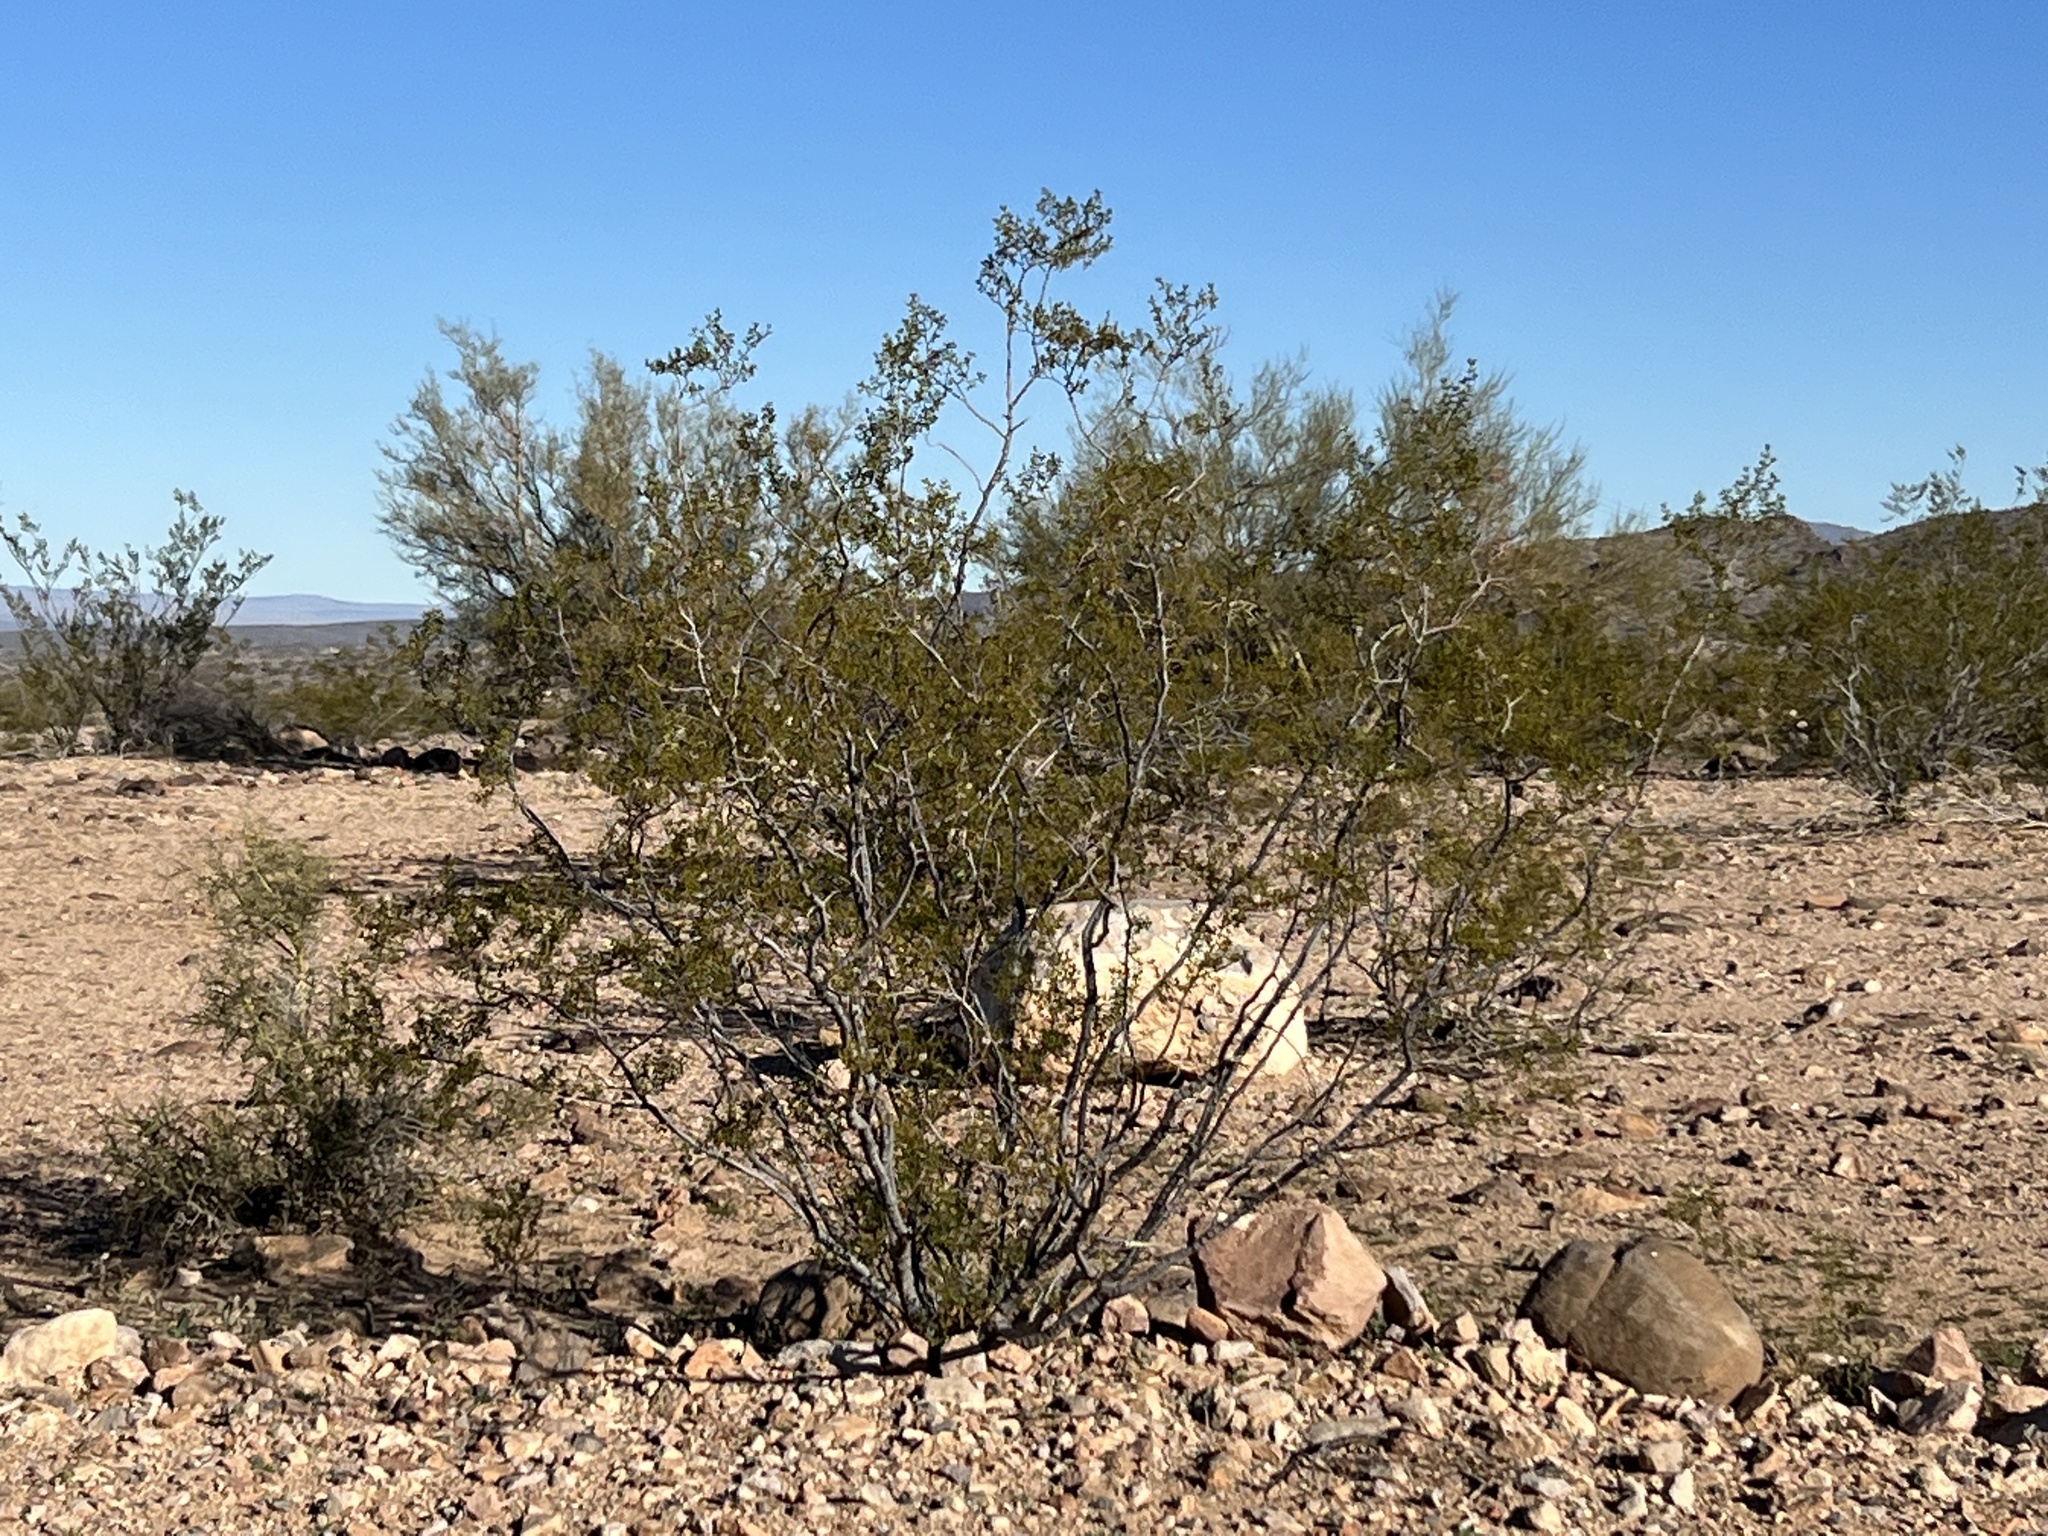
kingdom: Plantae
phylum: Tracheophyta
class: Magnoliopsida
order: Zygophyllales
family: Zygophyllaceae
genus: Larrea
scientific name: Larrea tridentata
